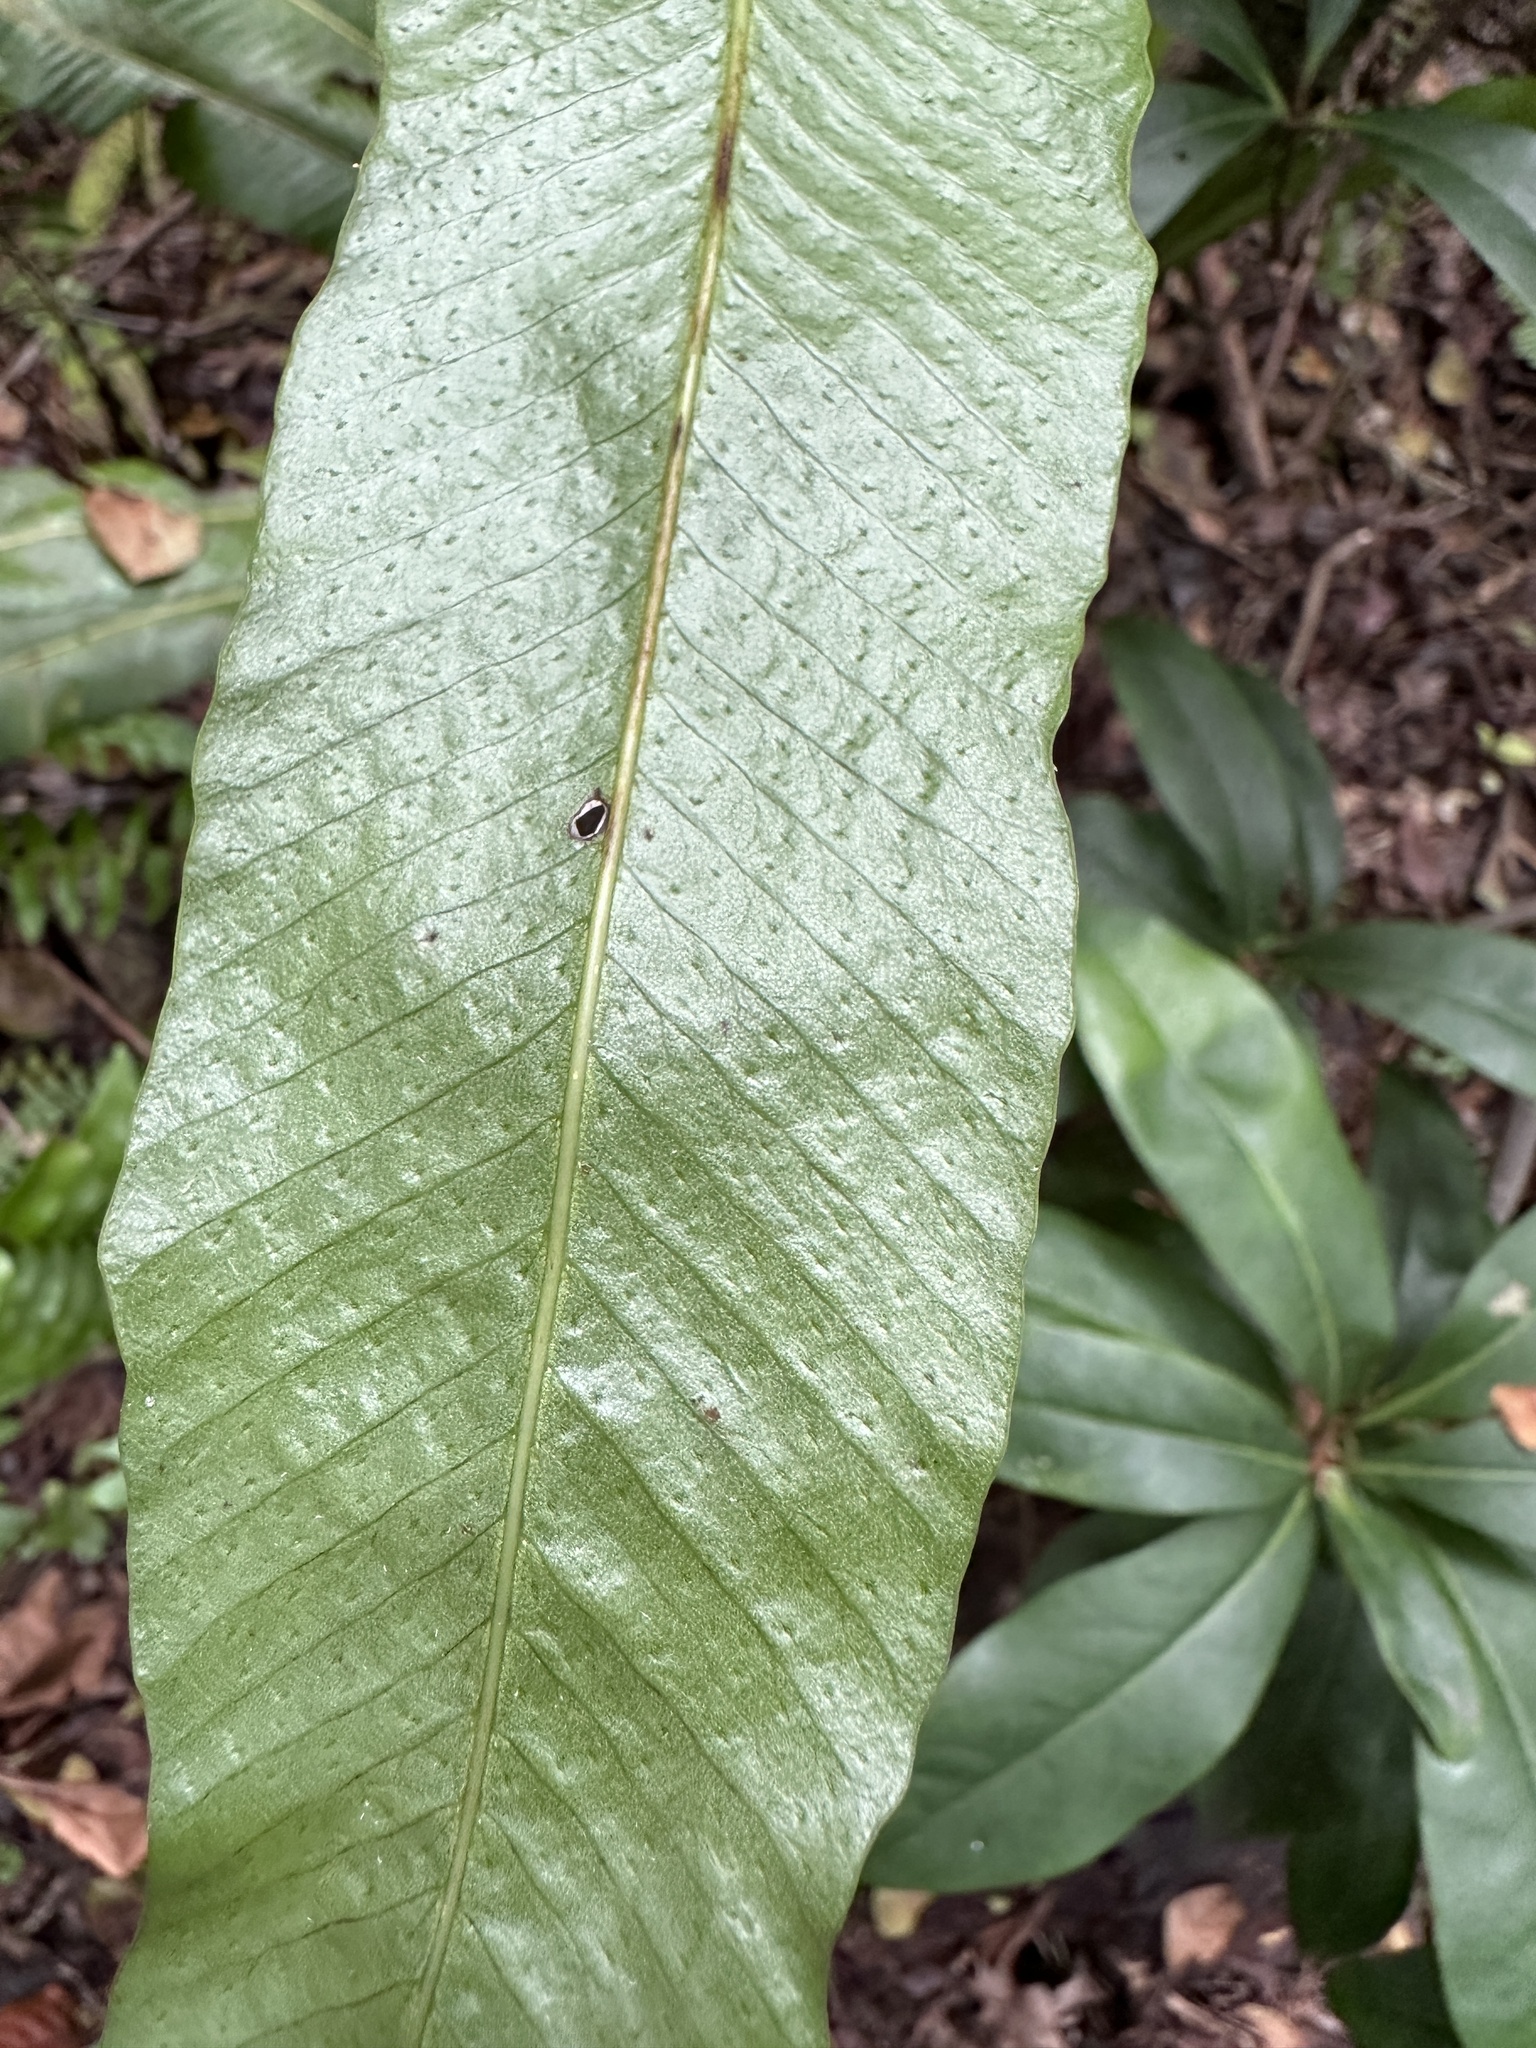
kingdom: Plantae
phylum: Tracheophyta
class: Polypodiopsida
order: Polypodiales
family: Polypodiaceae
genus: Campyloneurum
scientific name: Campyloneurum phyllitidis
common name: Cow-tongue fern
